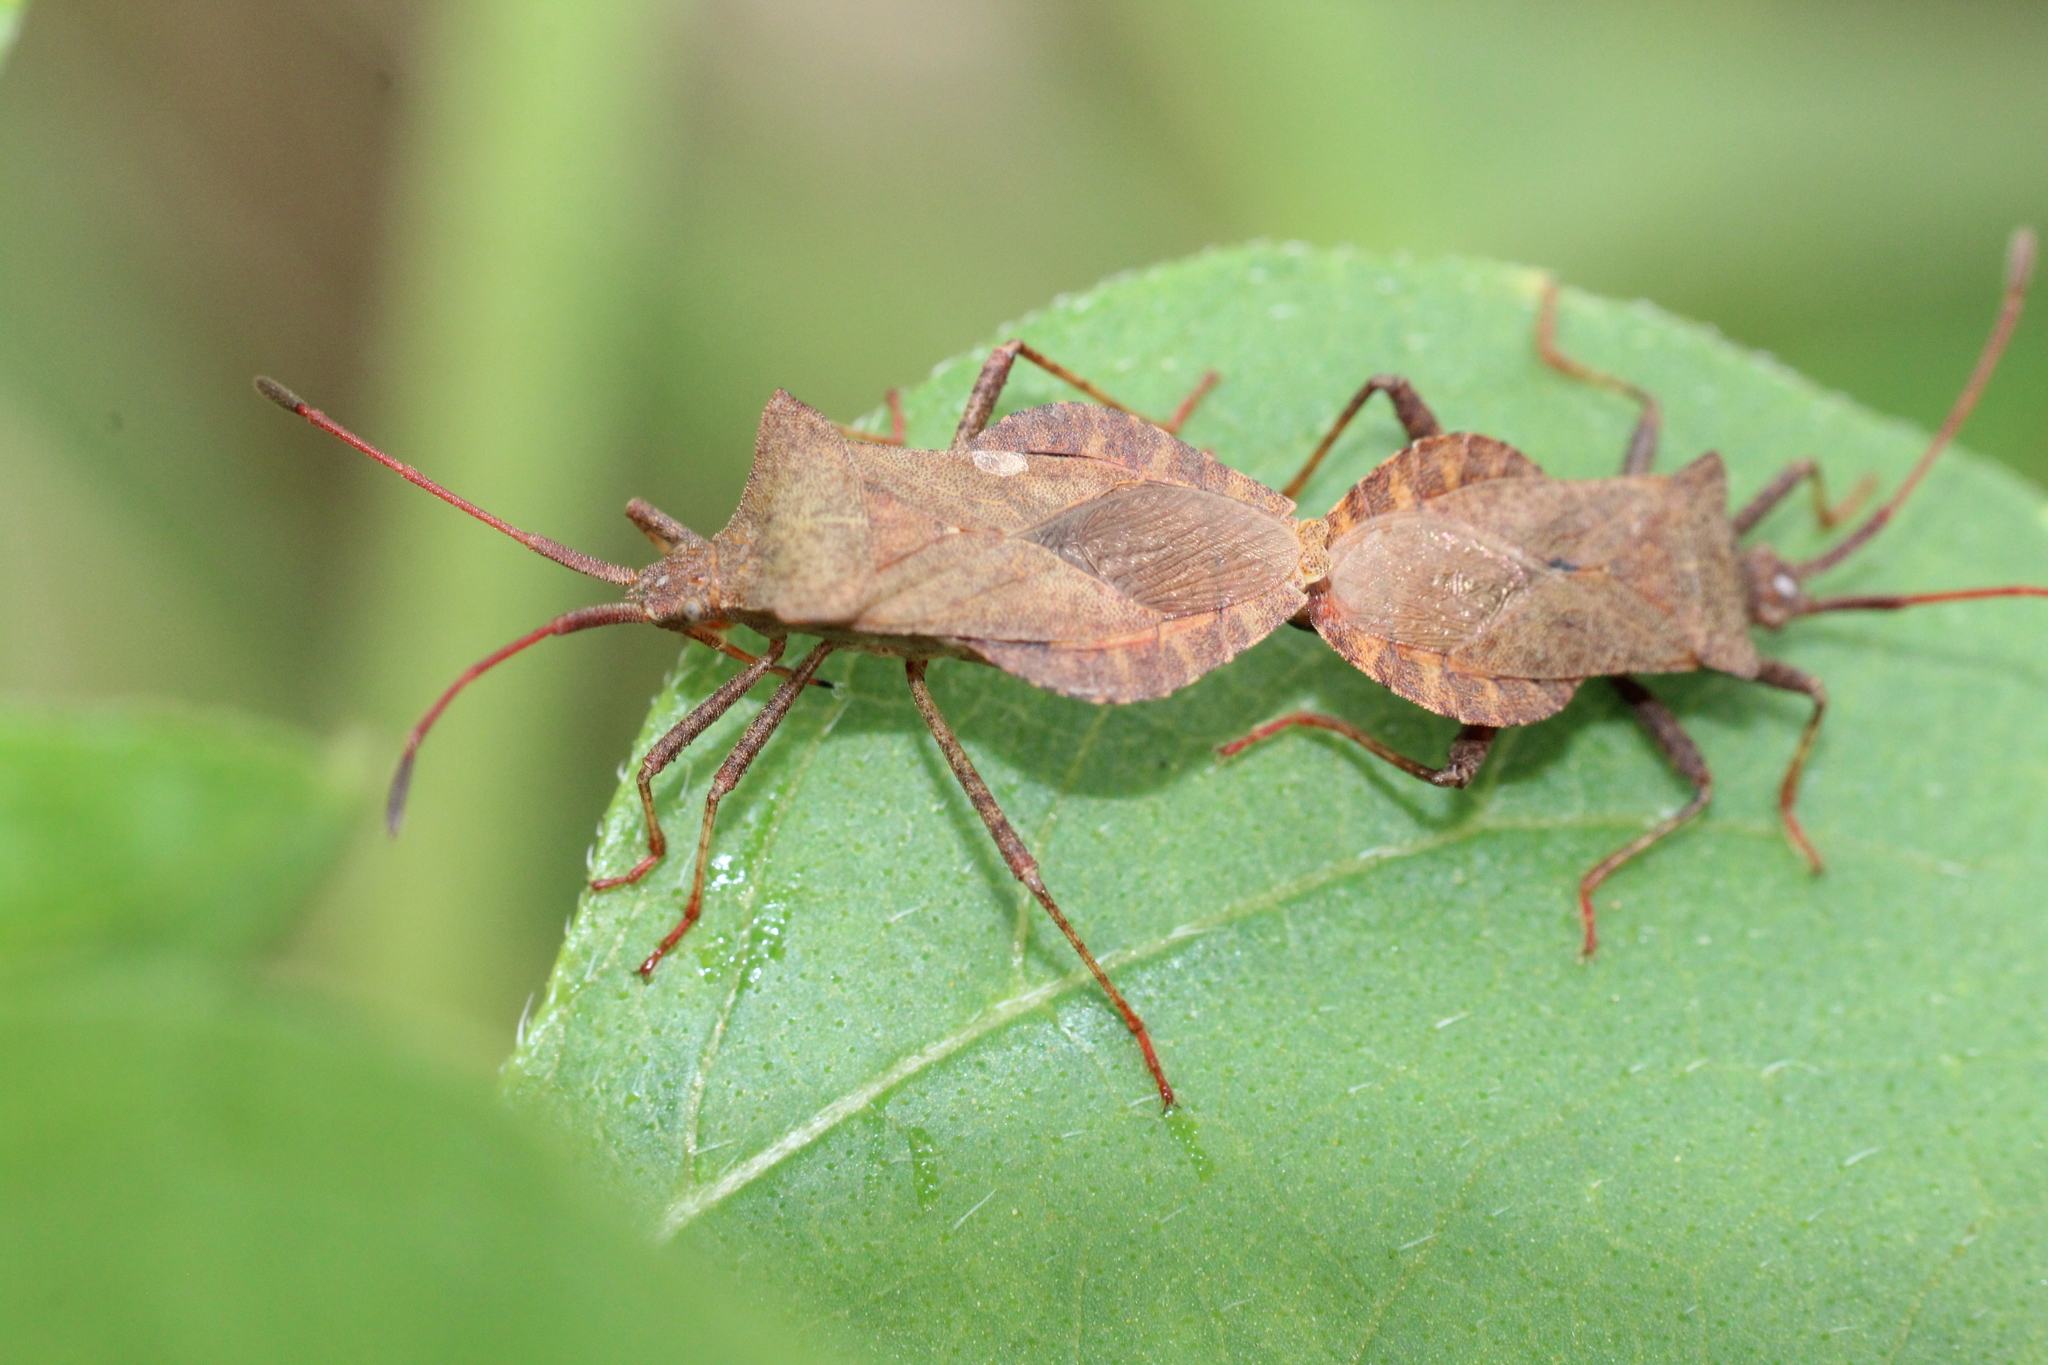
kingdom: Animalia
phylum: Arthropoda
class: Insecta
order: Hemiptera
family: Coreidae
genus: Coreus
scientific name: Coreus marginatus
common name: Dock bug
